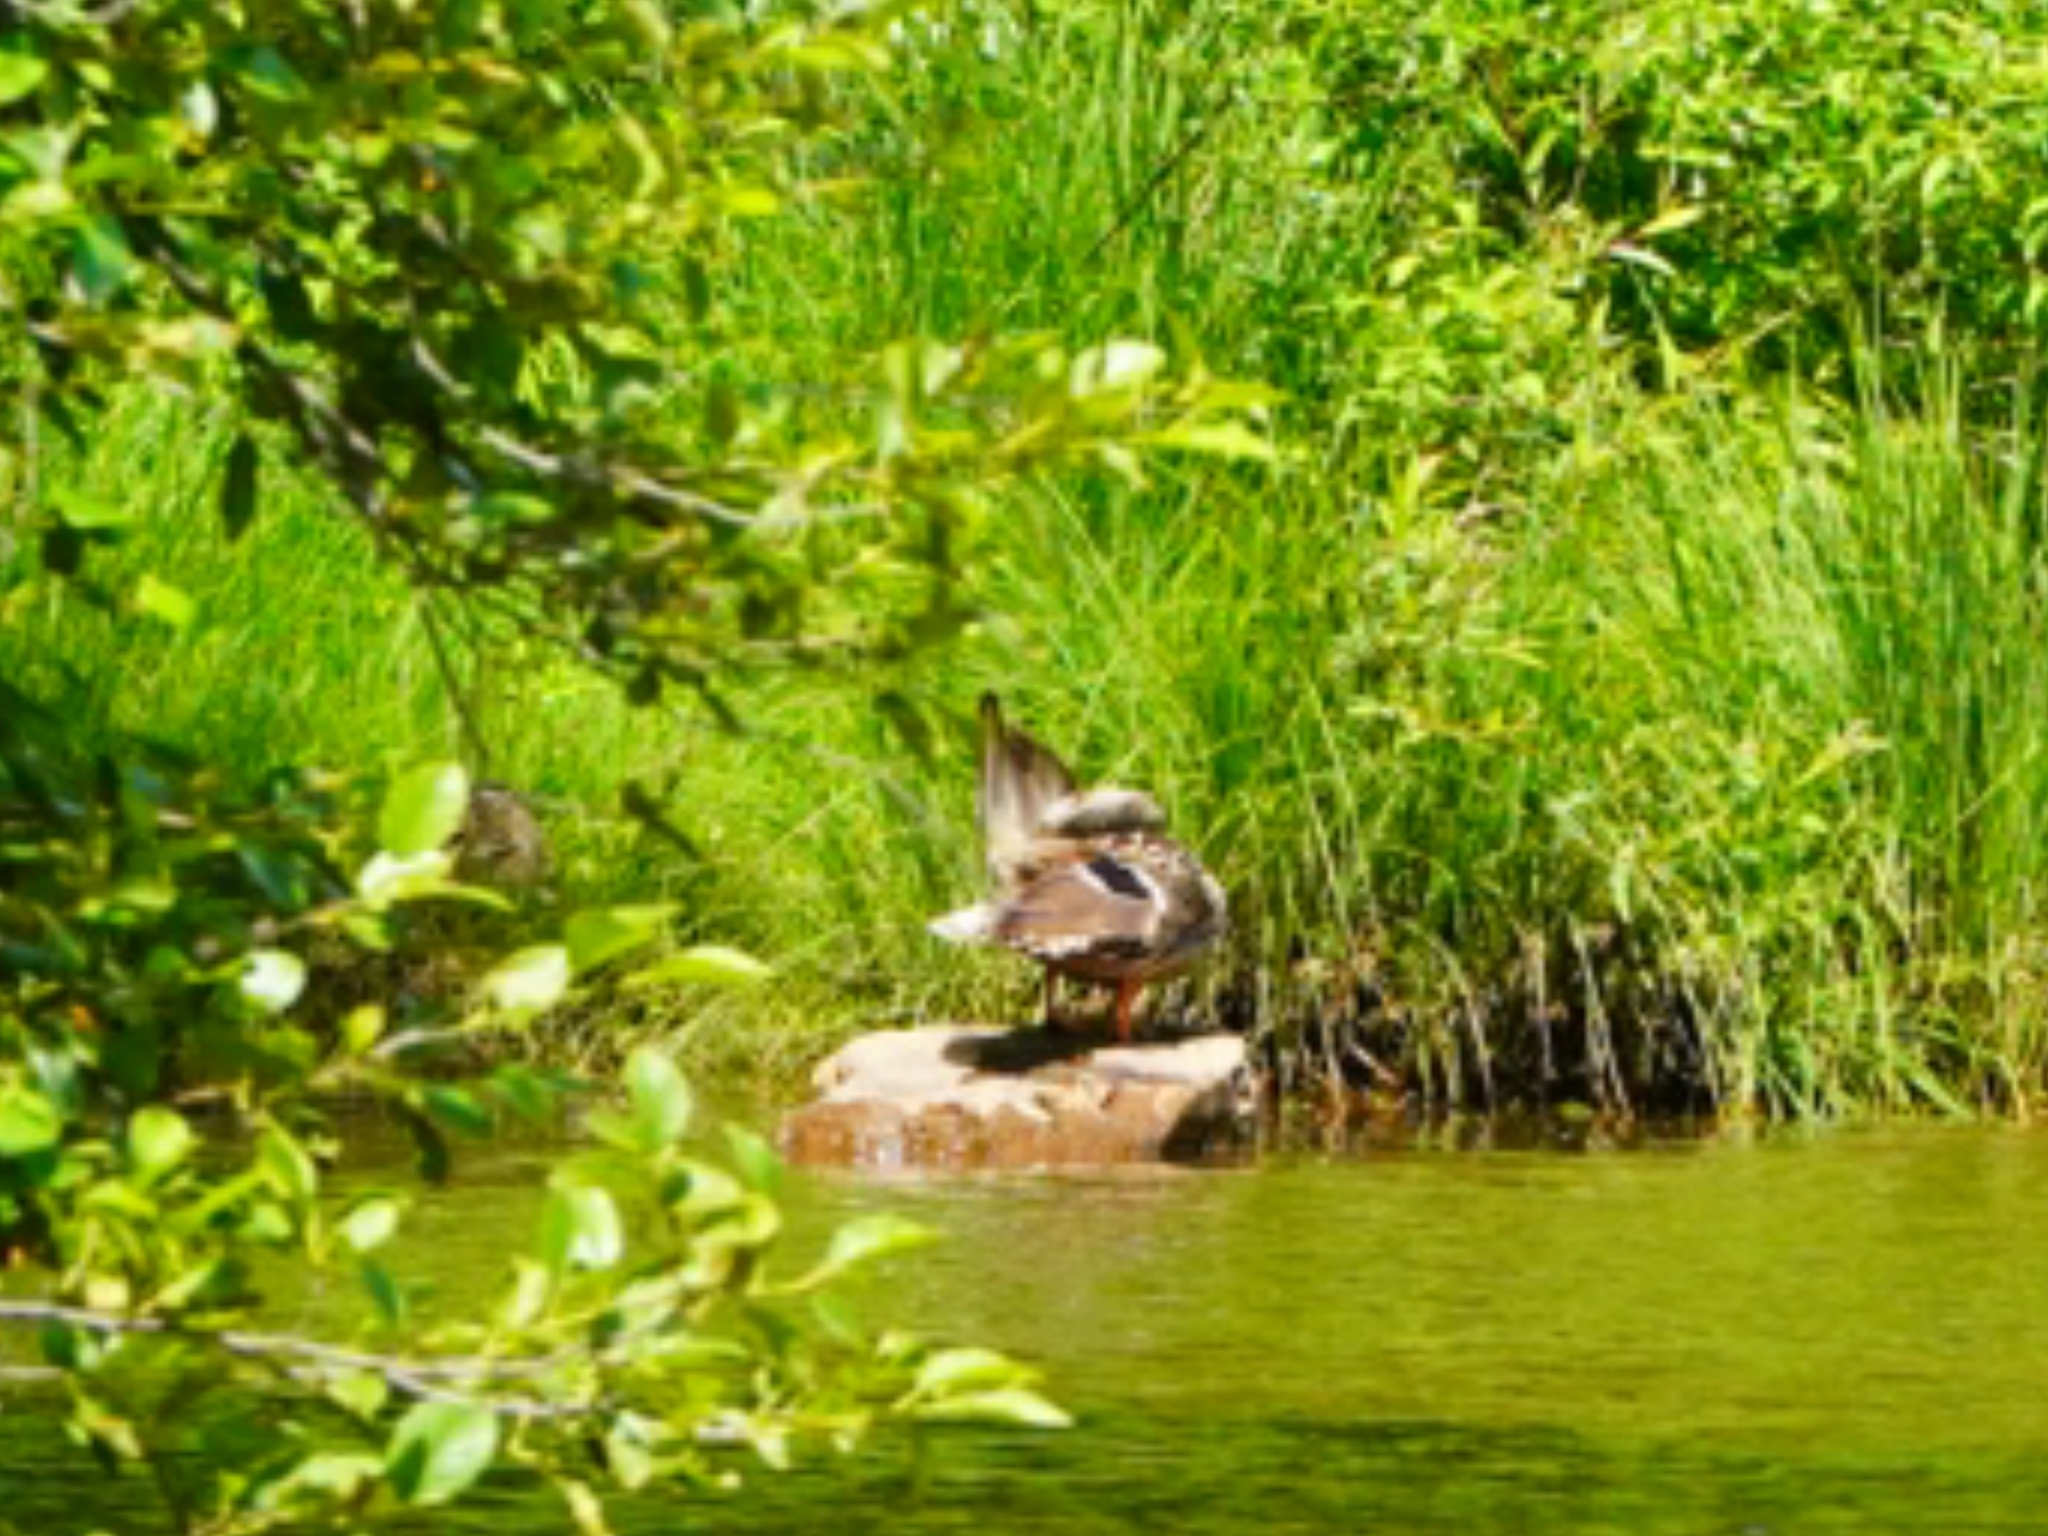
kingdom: Animalia
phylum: Chordata
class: Aves
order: Anseriformes
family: Anatidae
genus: Anas
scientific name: Anas platyrhynchos
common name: Mallard
